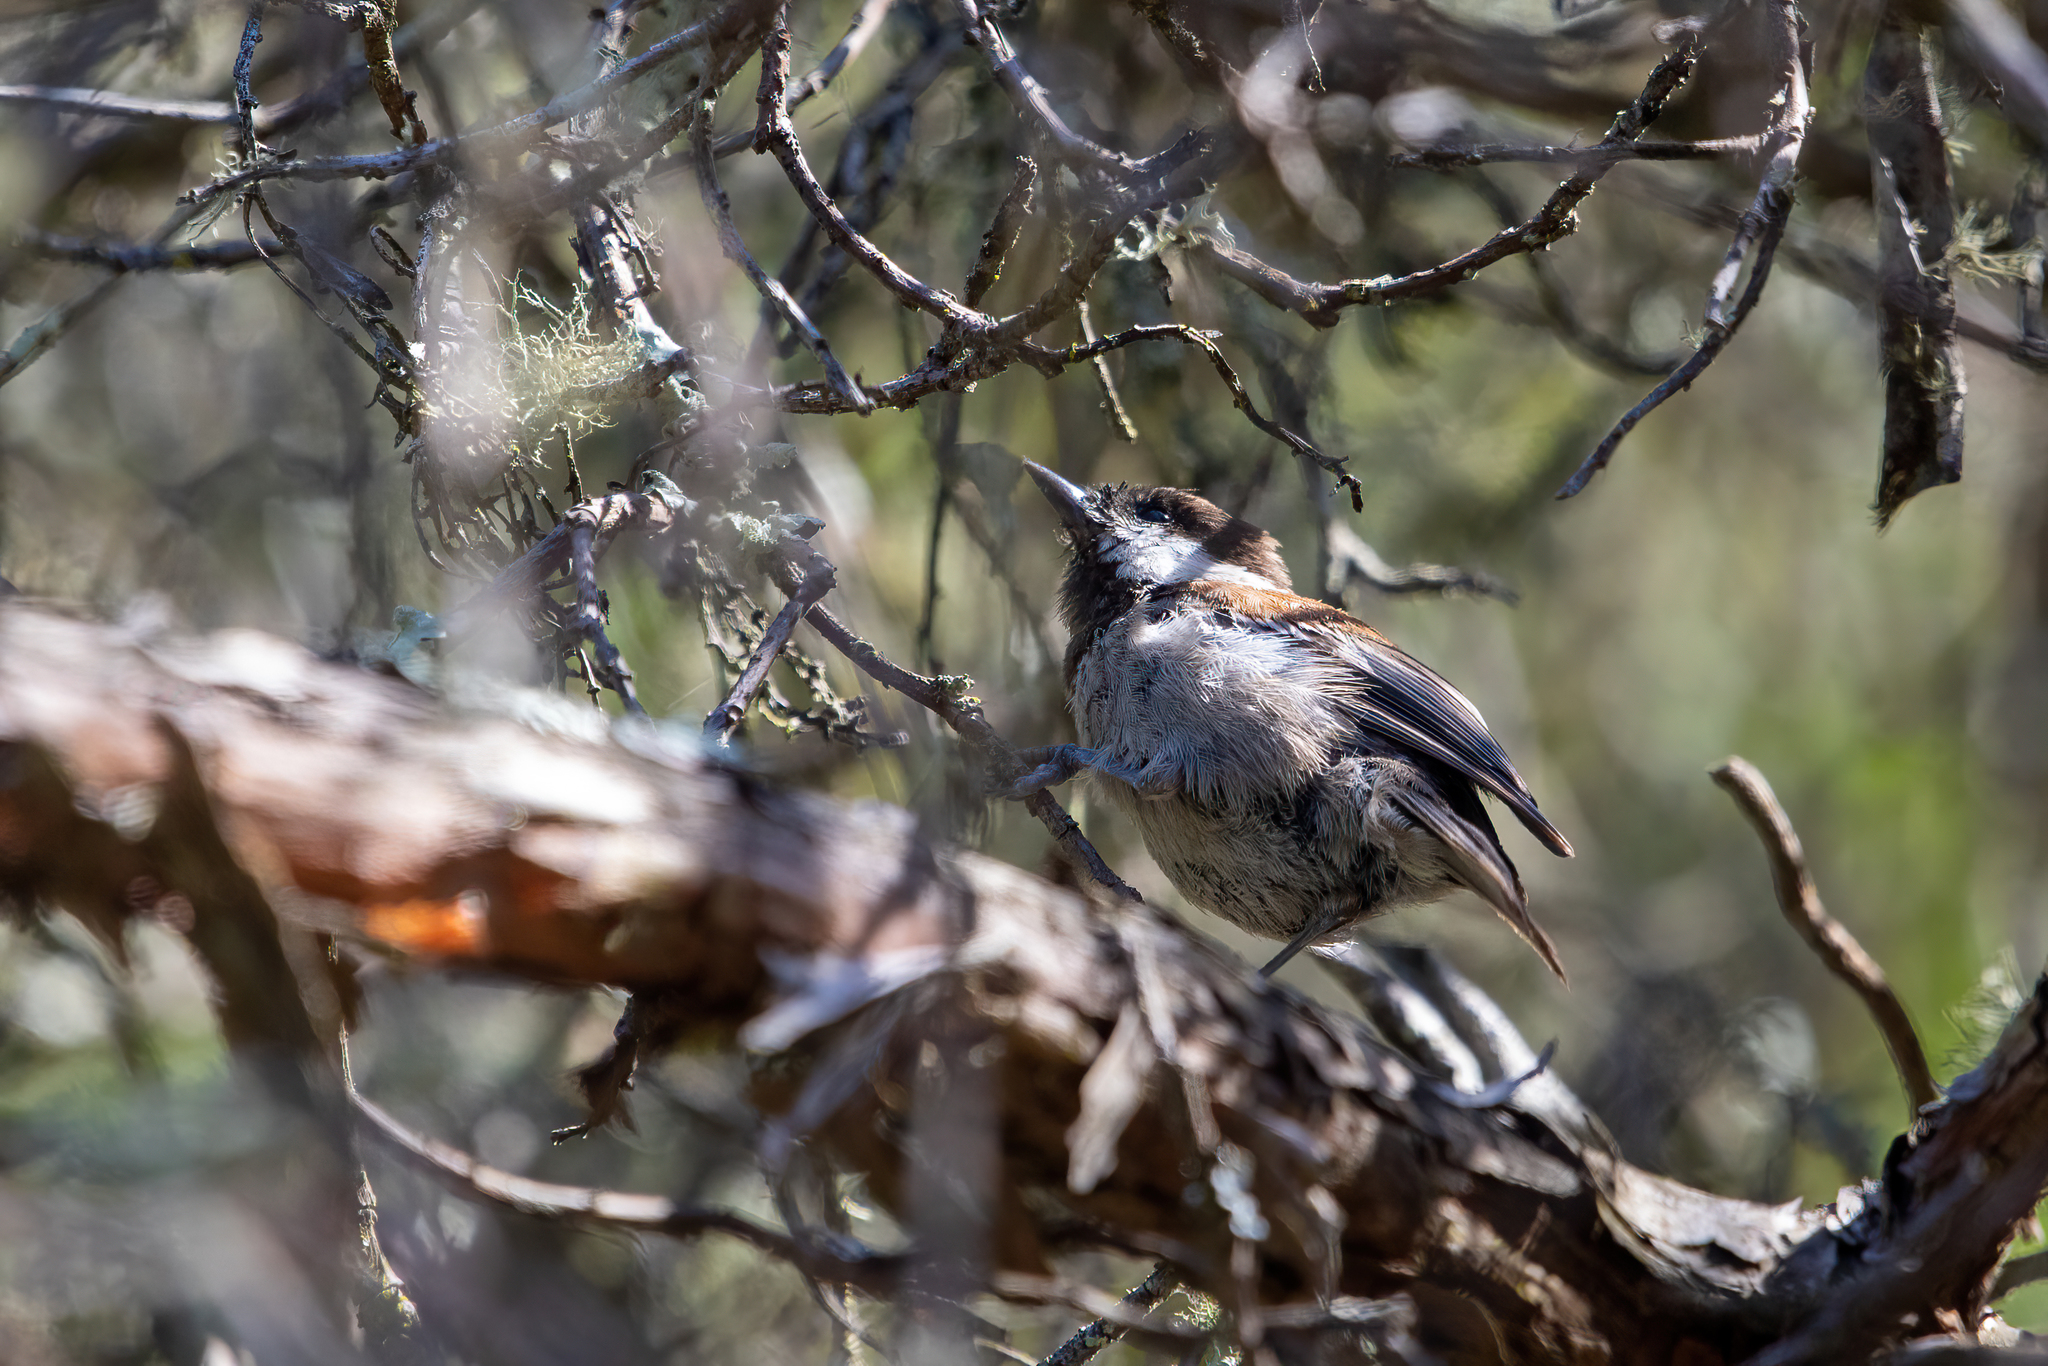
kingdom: Animalia
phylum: Chordata
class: Aves
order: Passeriformes
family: Paridae
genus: Poecile
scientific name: Poecile rufescens
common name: Chestnut-backed chickadee
